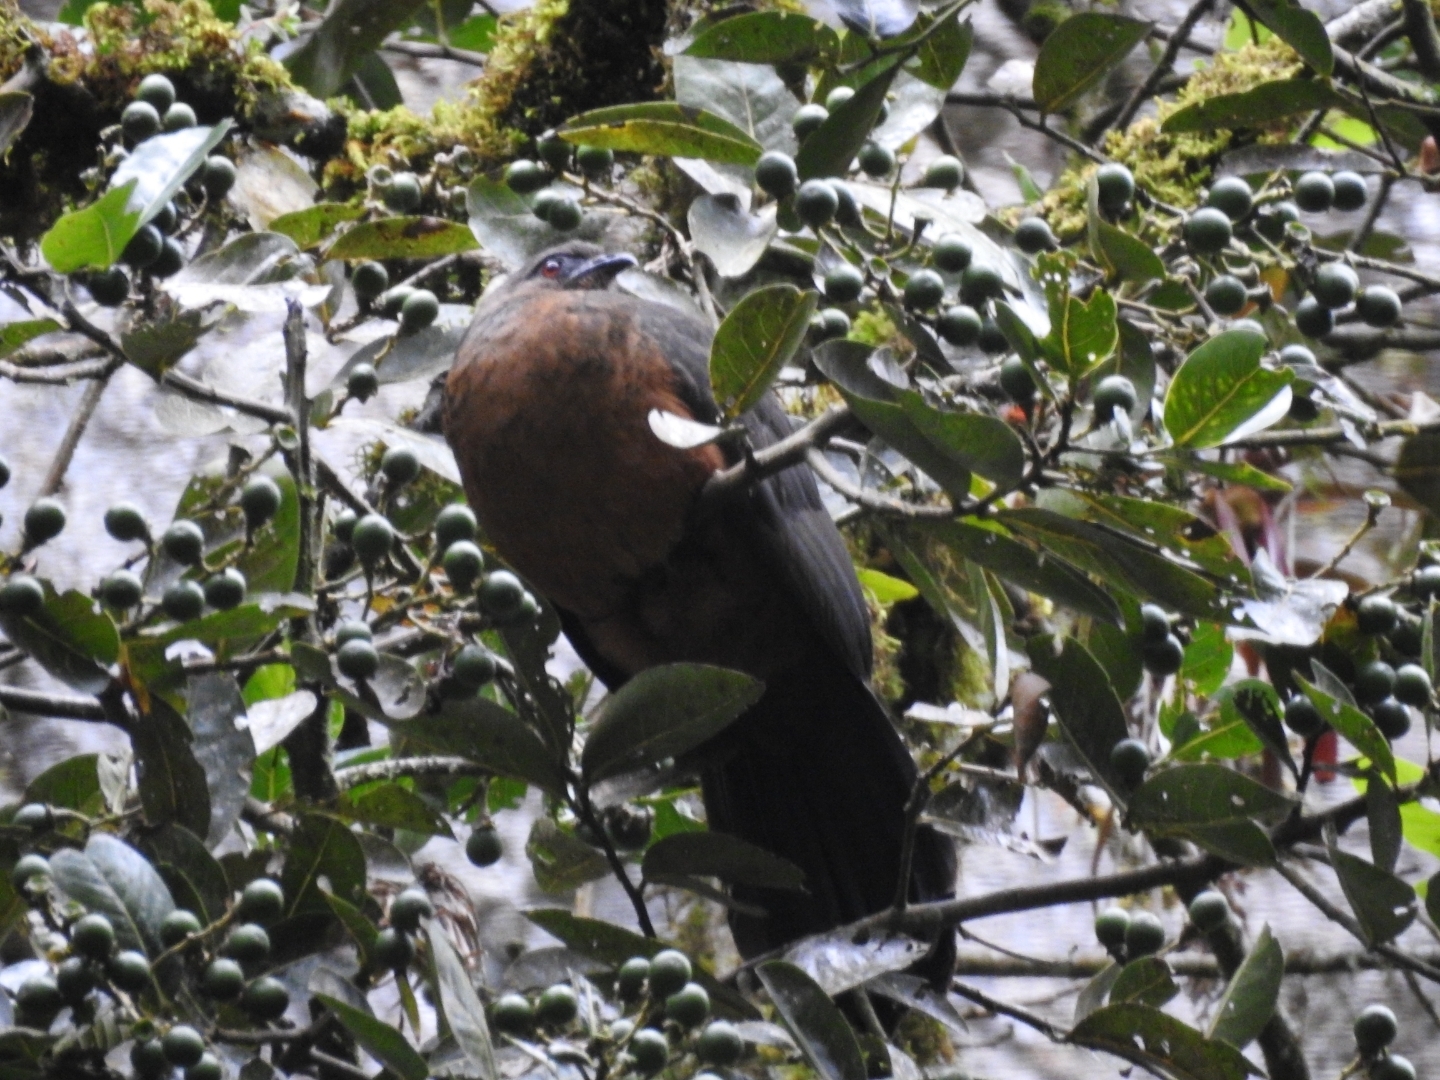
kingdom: Animalia
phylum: Chordata
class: Aves
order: Galliformes
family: Cracidae
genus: Chamaepetes
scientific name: Chamaepetes goudotii
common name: Sickle-winged guan
